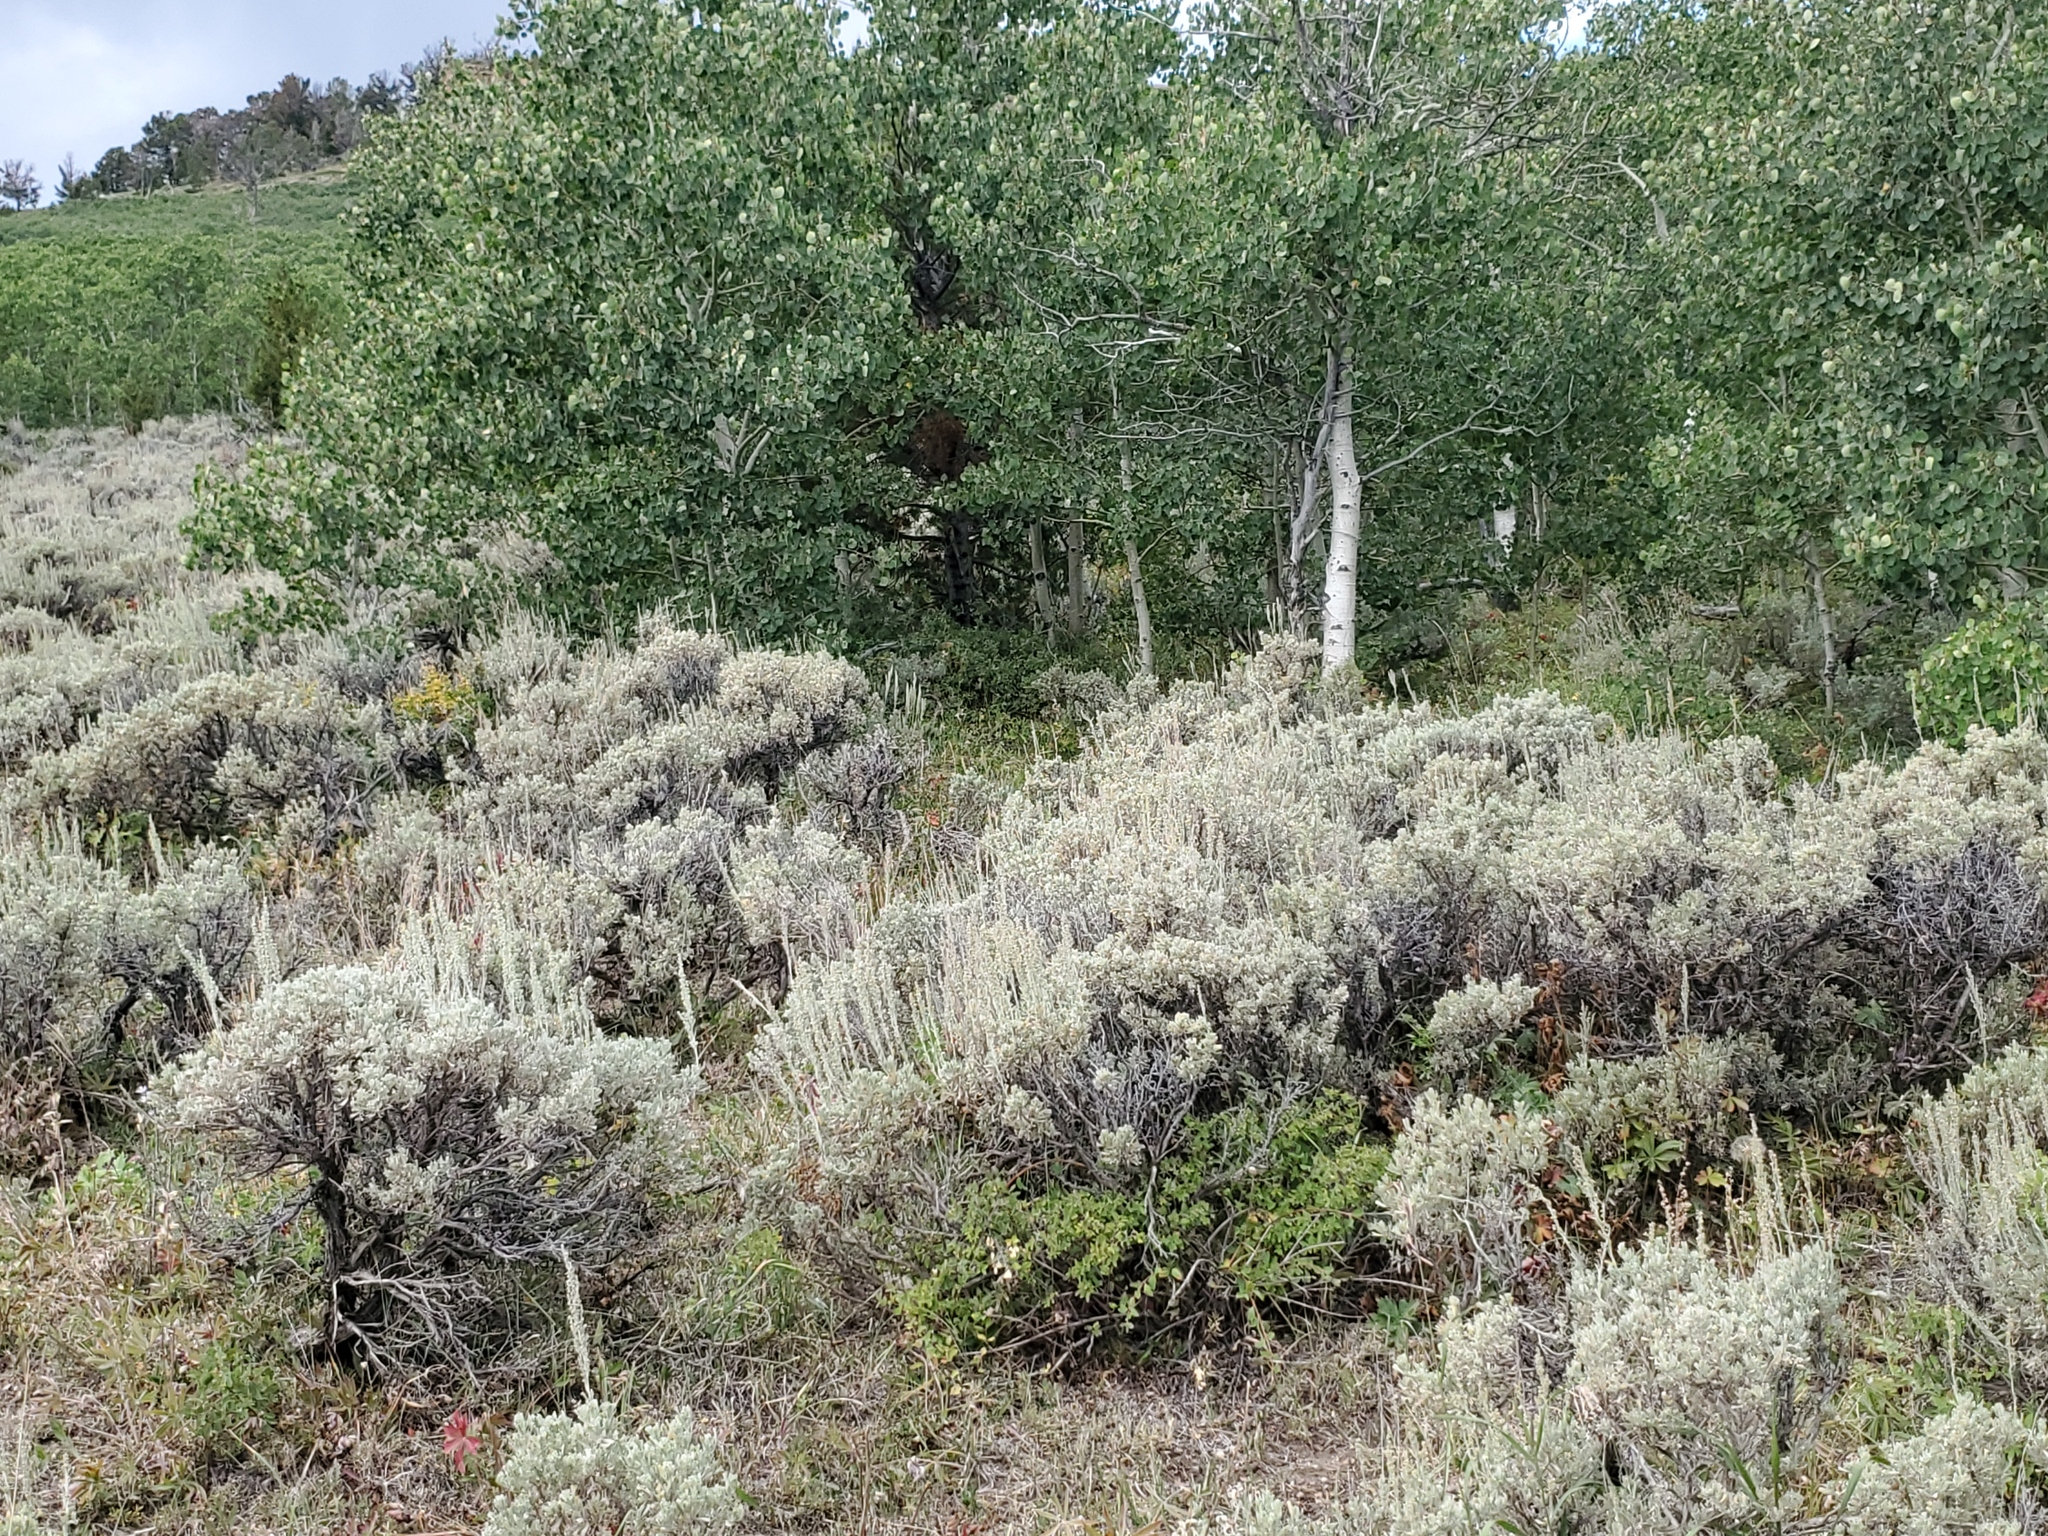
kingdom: Plantae
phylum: Tracheophyta
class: Magnoliopsida
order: Malpighiales
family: Salicaceae
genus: Populus
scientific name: Populus tremuloides
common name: Quaking aspen
